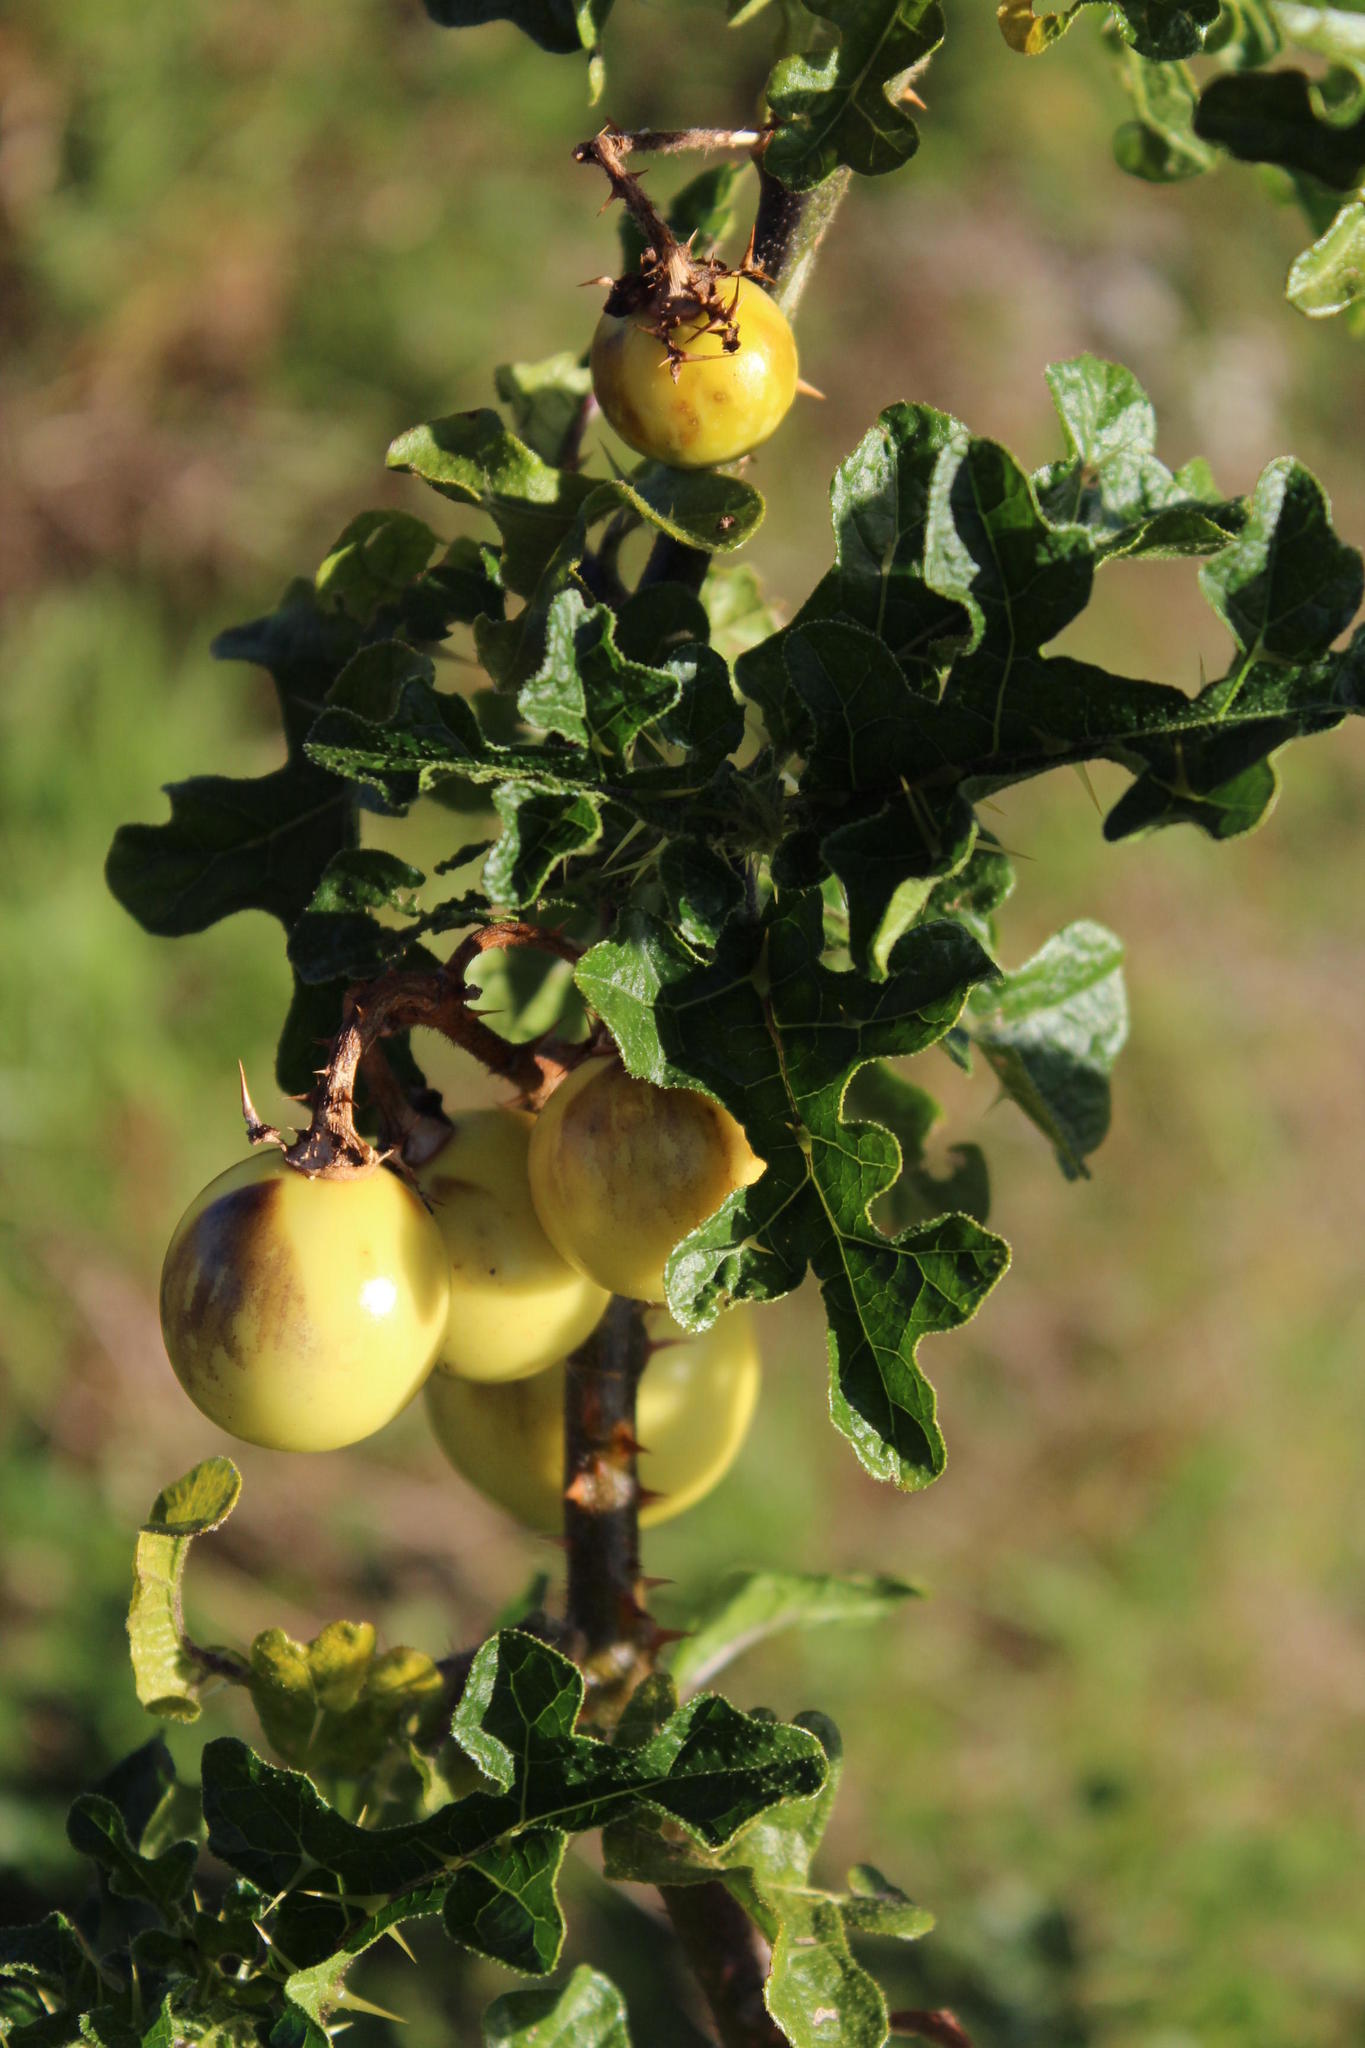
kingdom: Plantae
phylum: Tracheophyta
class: Magnoliopsida
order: Solanales
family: Solanaceae
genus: Solanum
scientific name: Solanum linnaeanum
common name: Nightshade
